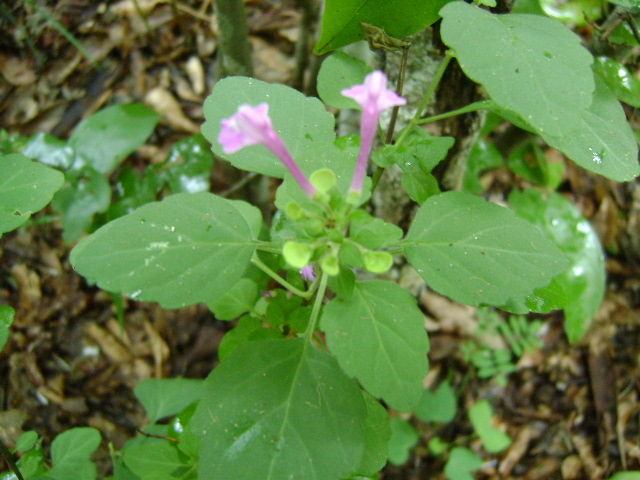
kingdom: Plantae
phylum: Tracheophyta
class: Magnoliopsida
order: Lamiales
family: Lamiaceae
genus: Scutellaria
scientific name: Scutellaria seleriana
